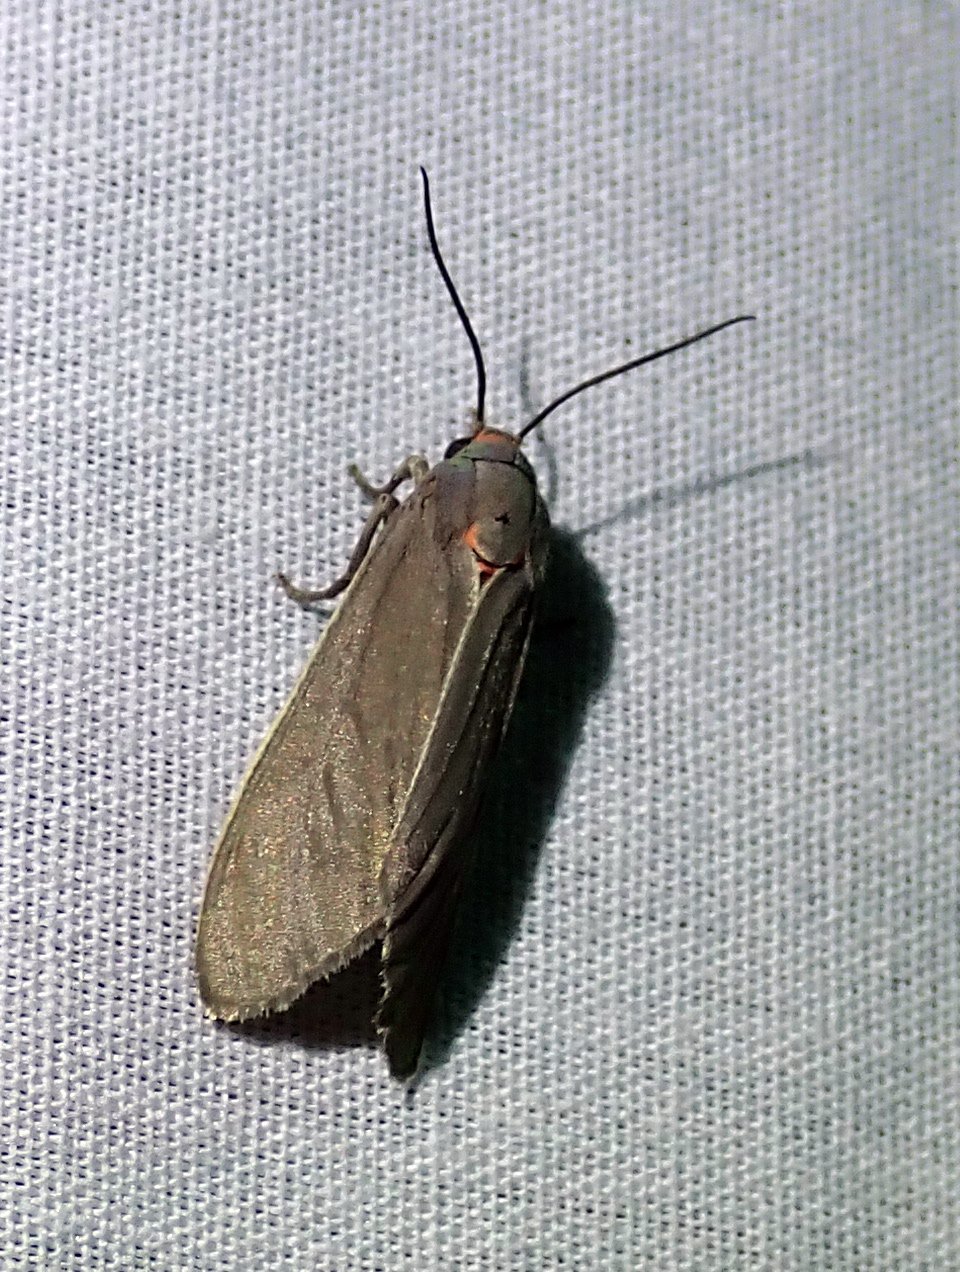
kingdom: Animalia
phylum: Arthropoda
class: Insecta
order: Lepidoptera
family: Erebidae
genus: Pygarctia
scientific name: Pygarctia murina
